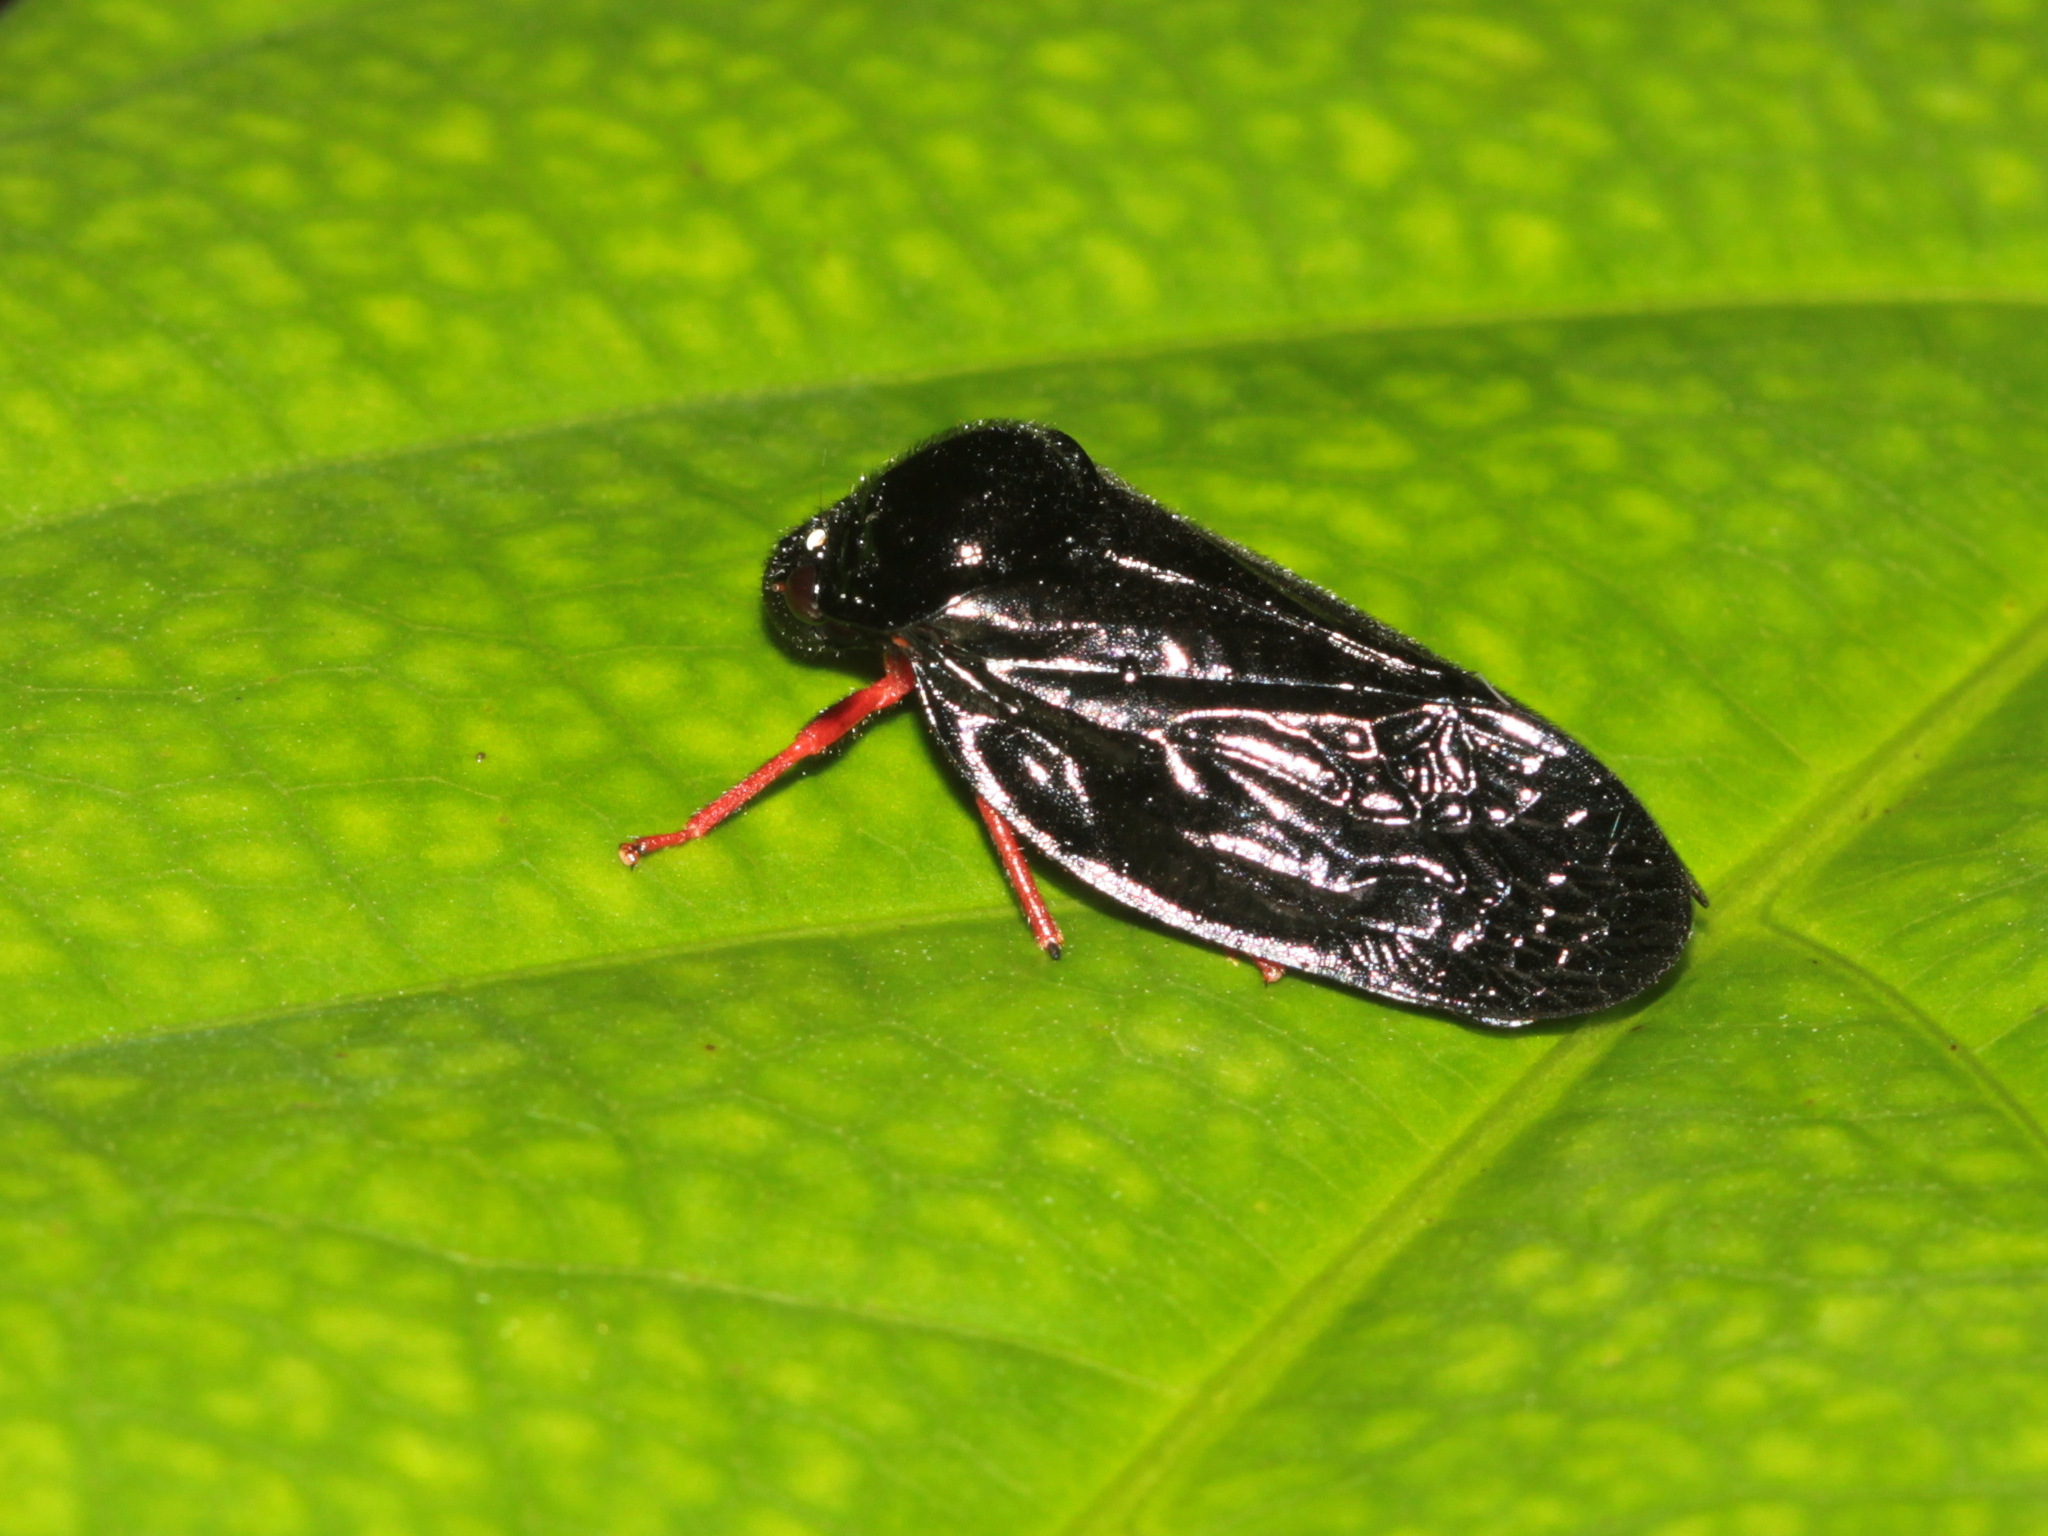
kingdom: Animalia
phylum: Arthropoda
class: Insecta
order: Hemiptera
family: Cercopidae
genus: Simeliria
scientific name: Simeliria viridans
